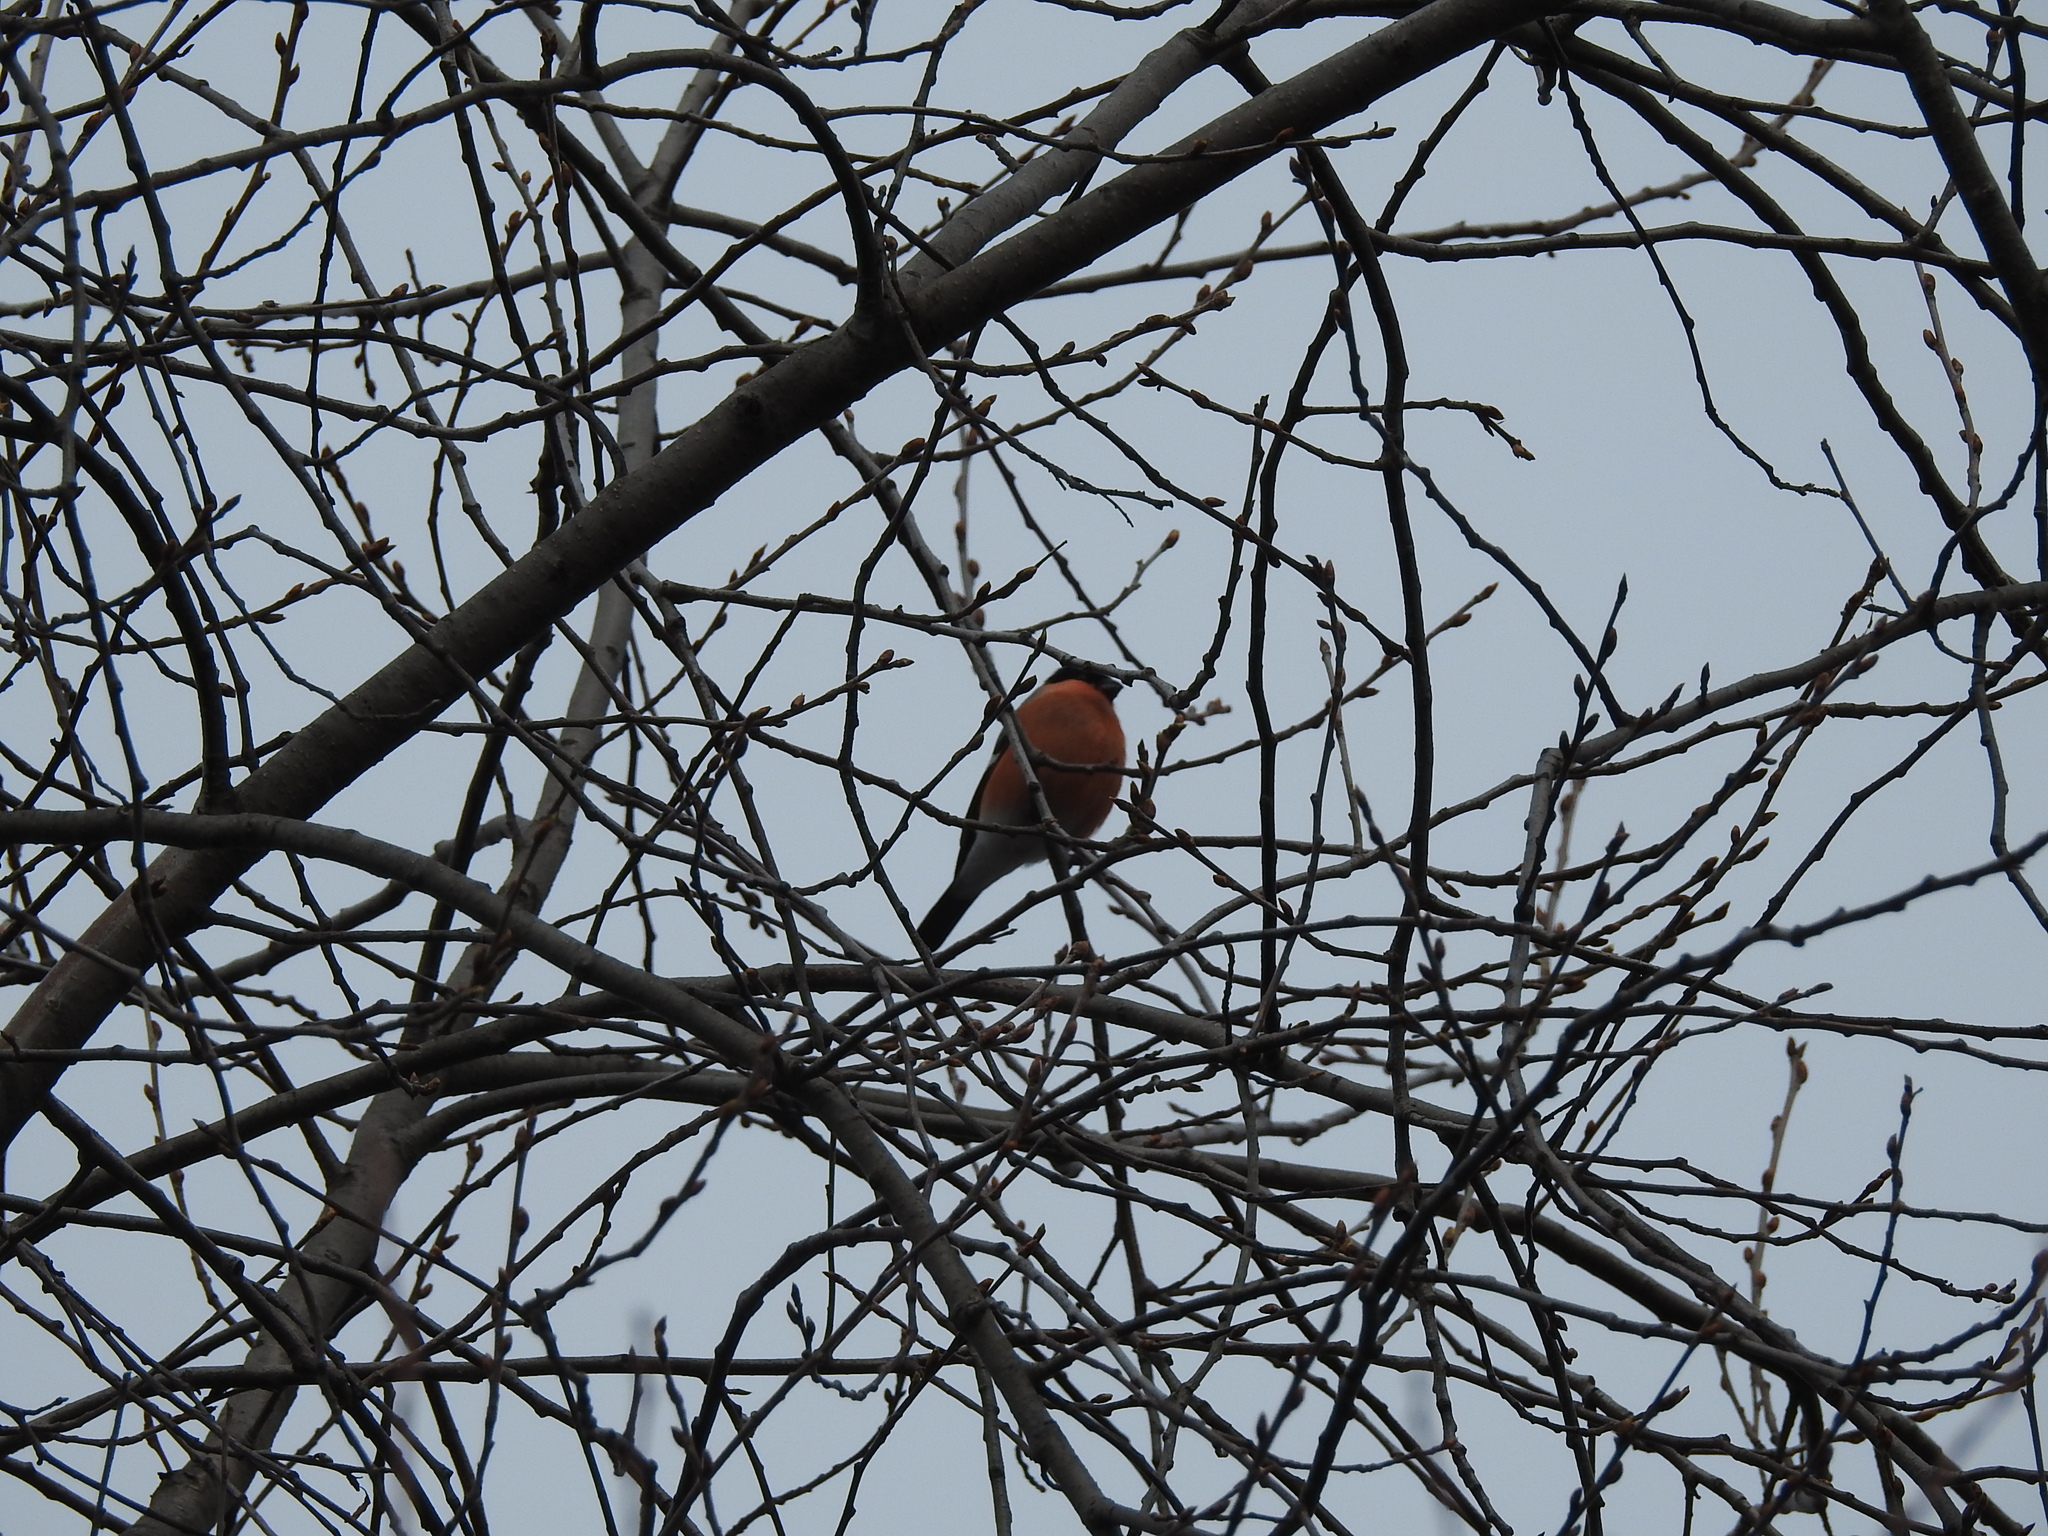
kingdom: Animalia
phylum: Chordata
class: Aves
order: Passeriformes
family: Fringillidae
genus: Pyrrhula
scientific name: Pyrrhula pyrrhula
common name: Eurasian bullfinch
